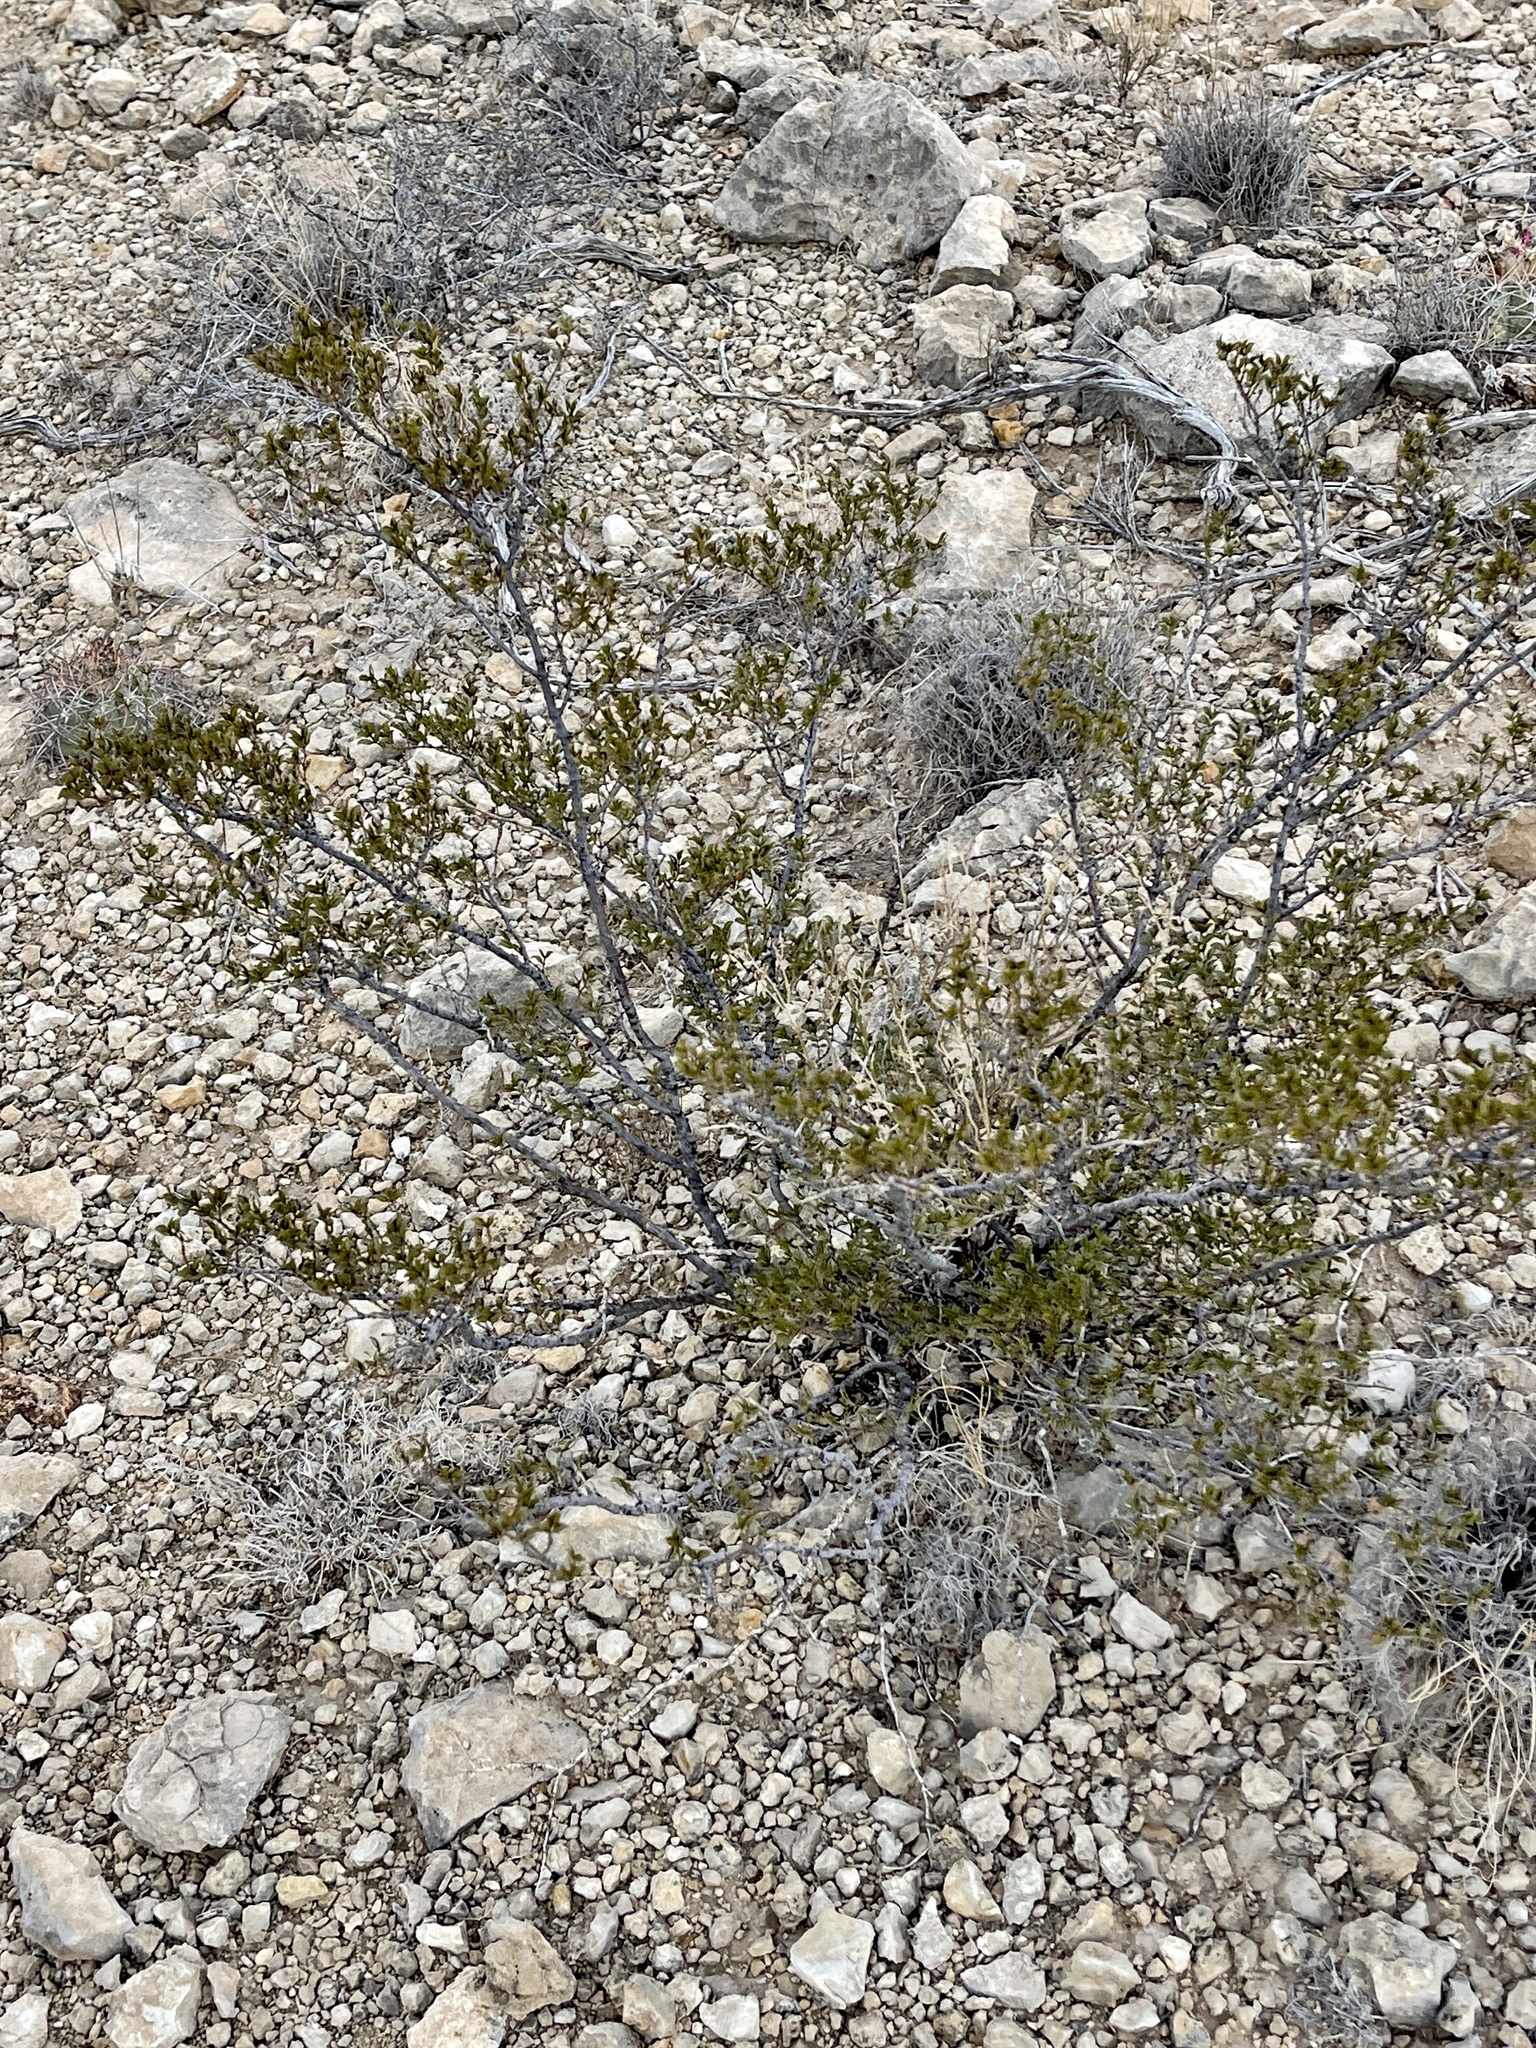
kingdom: Plantae
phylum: Tracheophyta
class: Magnoliopsida
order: Zygophyllales
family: Zygophyllaceae
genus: Larrea
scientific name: Larrea tridentata
